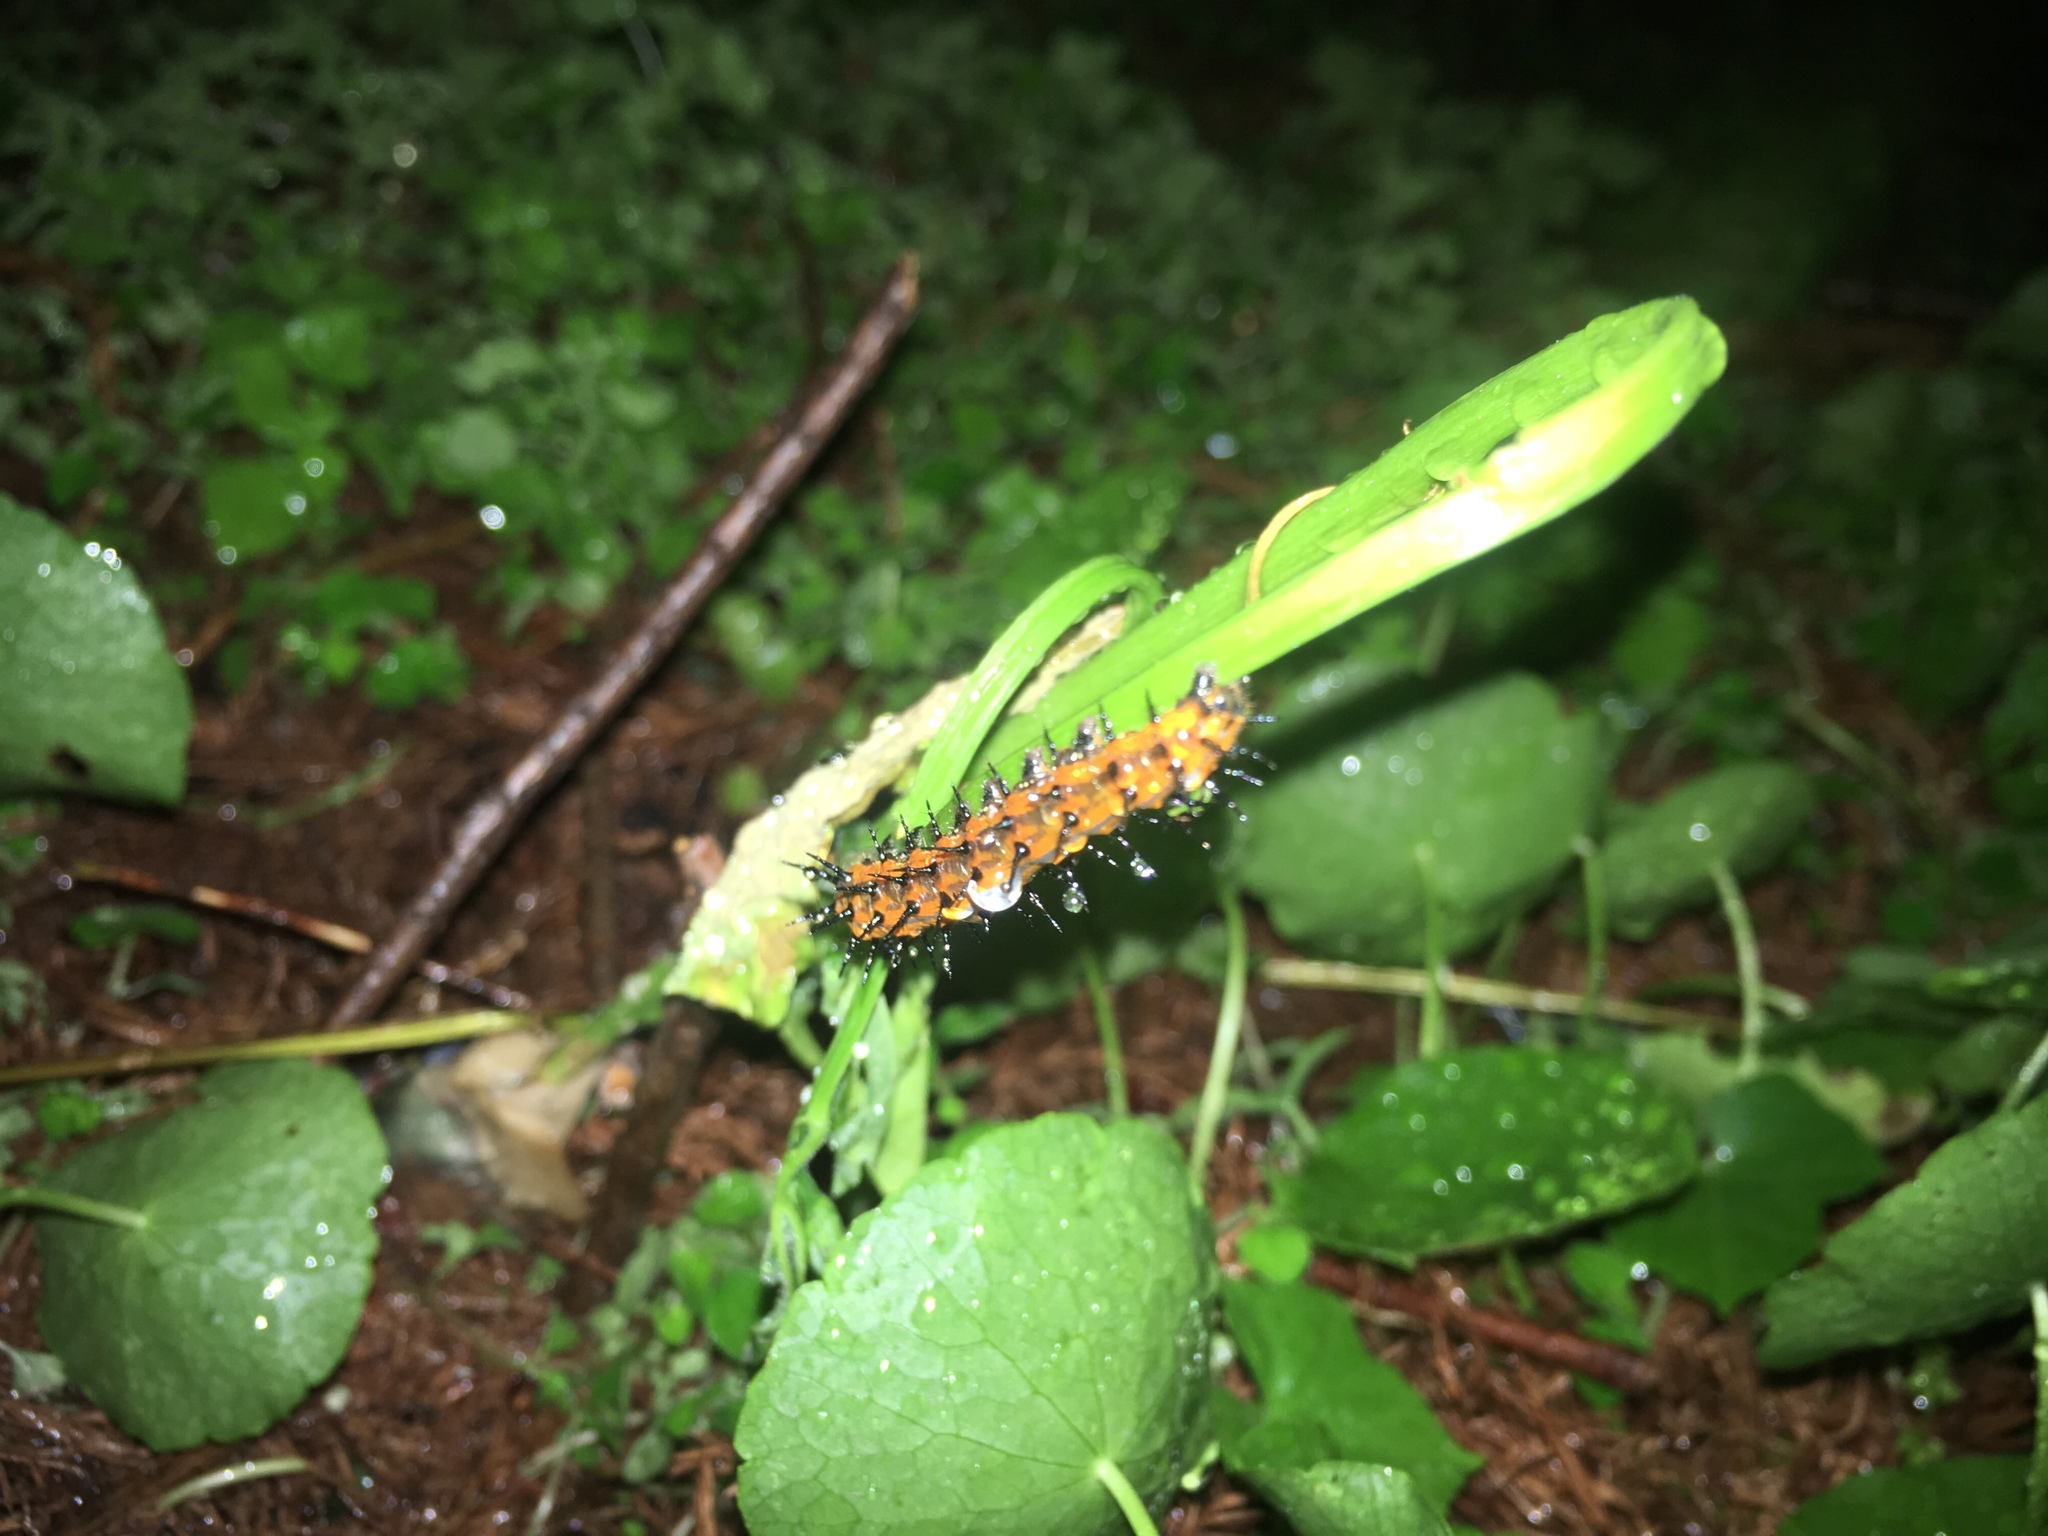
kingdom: Animalia
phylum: Arthropoda
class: Insecta
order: Lepidoptera
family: Nymphalidae
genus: Dione
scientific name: Dione vanillae
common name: Gulf fritillary
